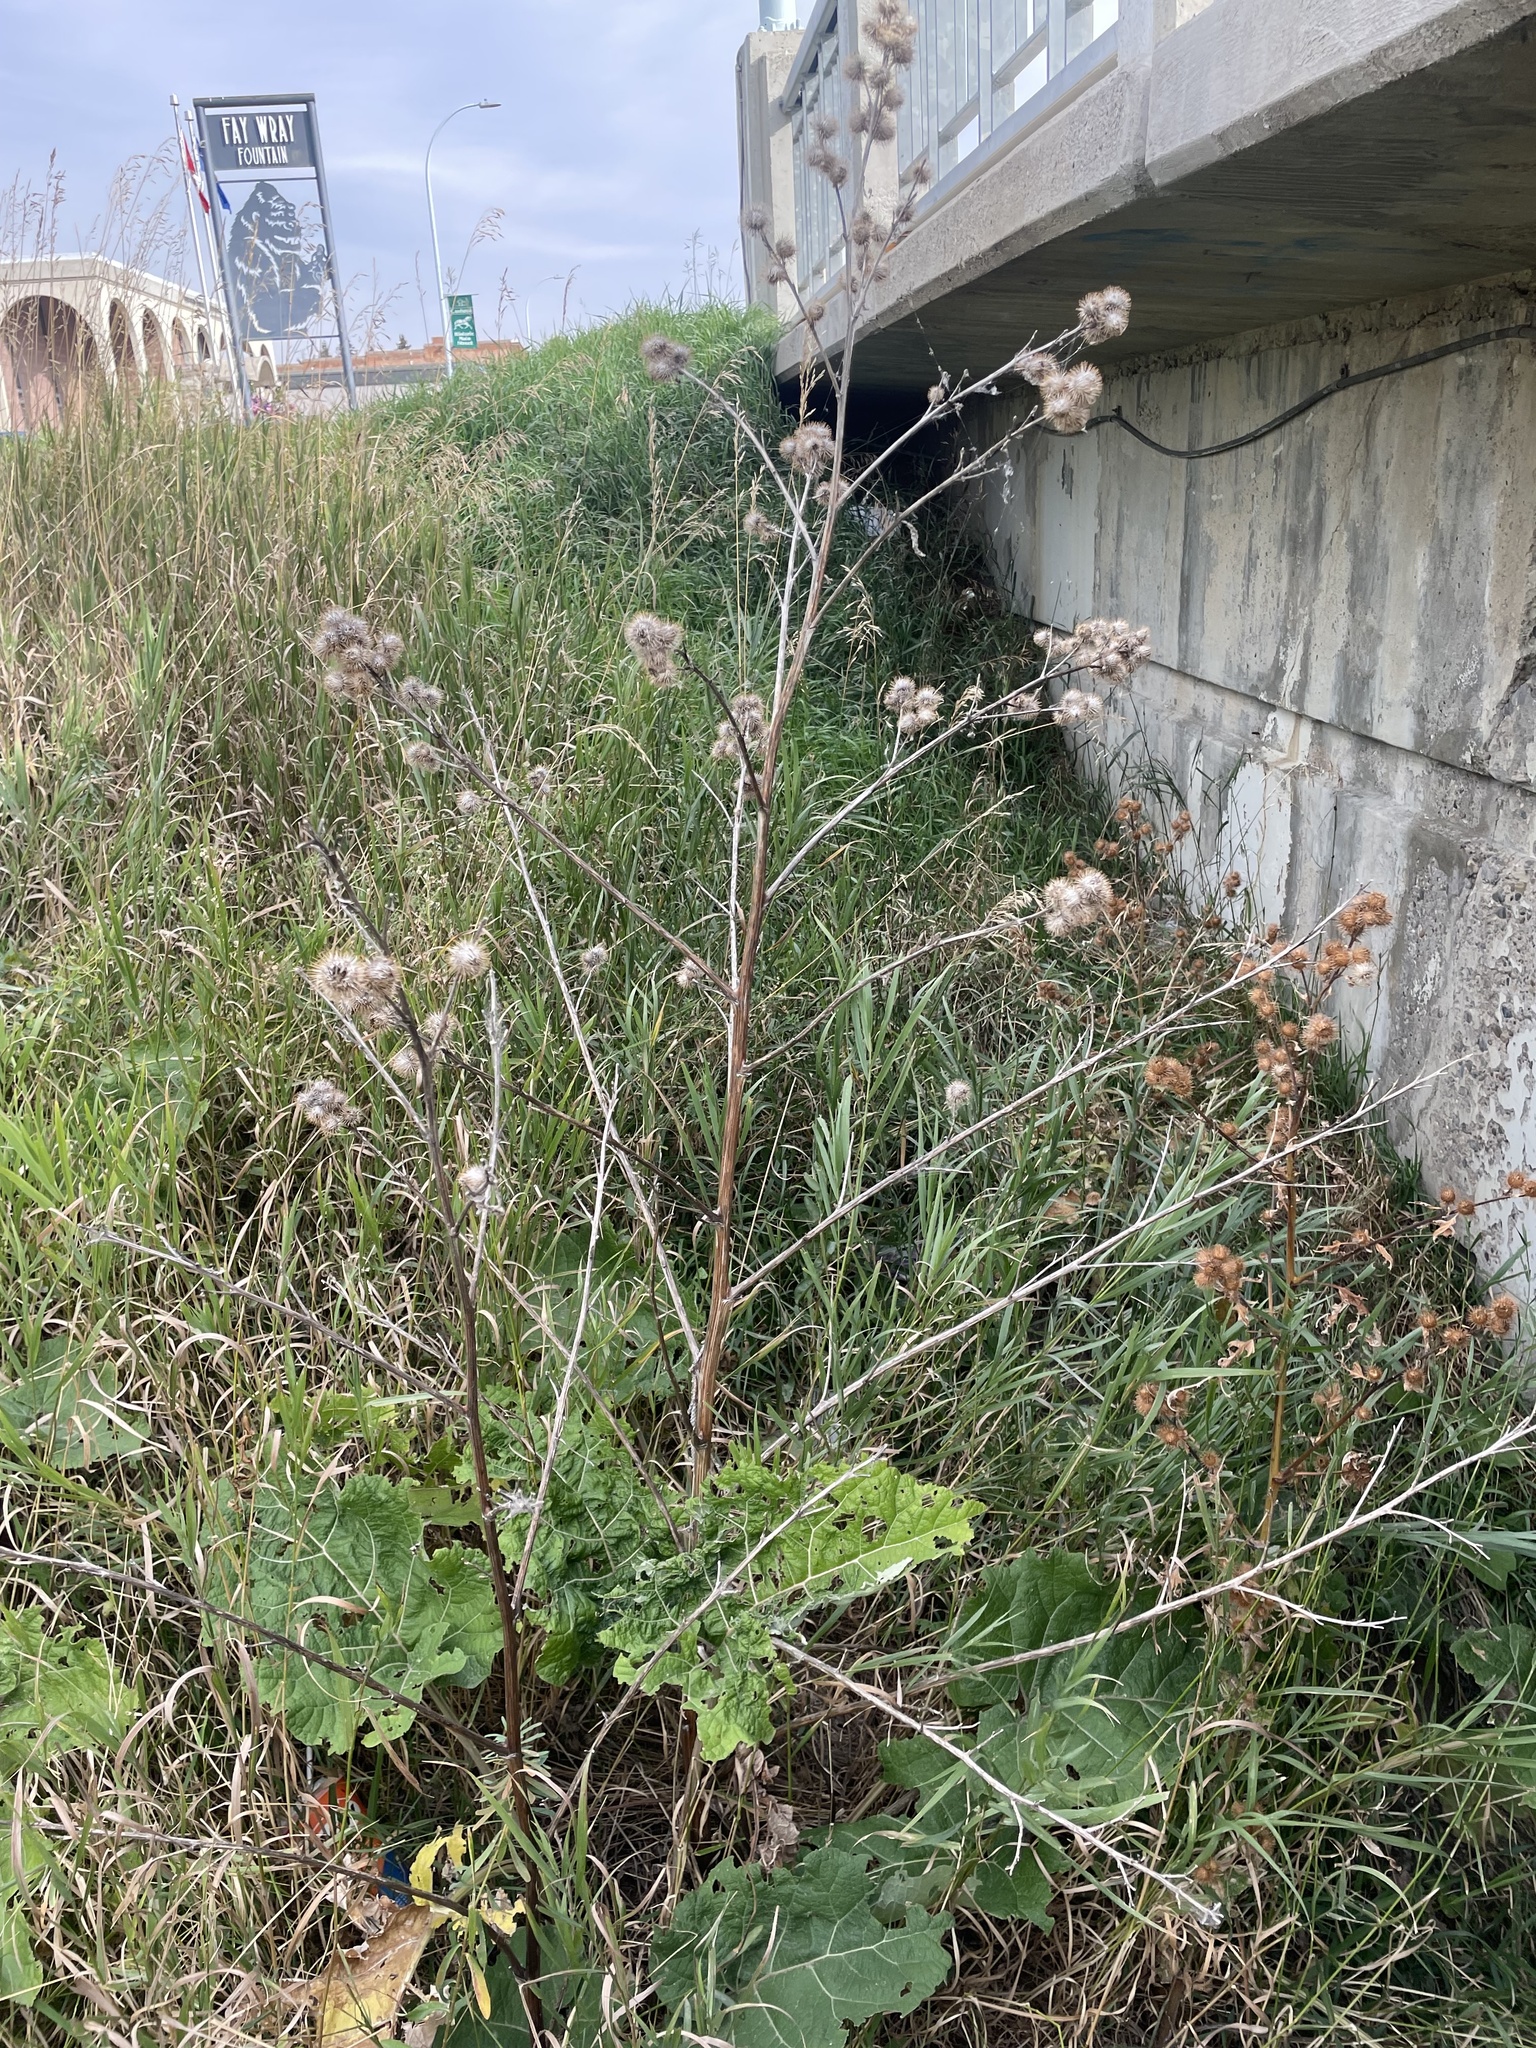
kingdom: Plantae
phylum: Tracheophyta
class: Magnoliopsida
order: Asterales
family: Asteraceae
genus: Arctium
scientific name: Arctium minus
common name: Lesser burdock
